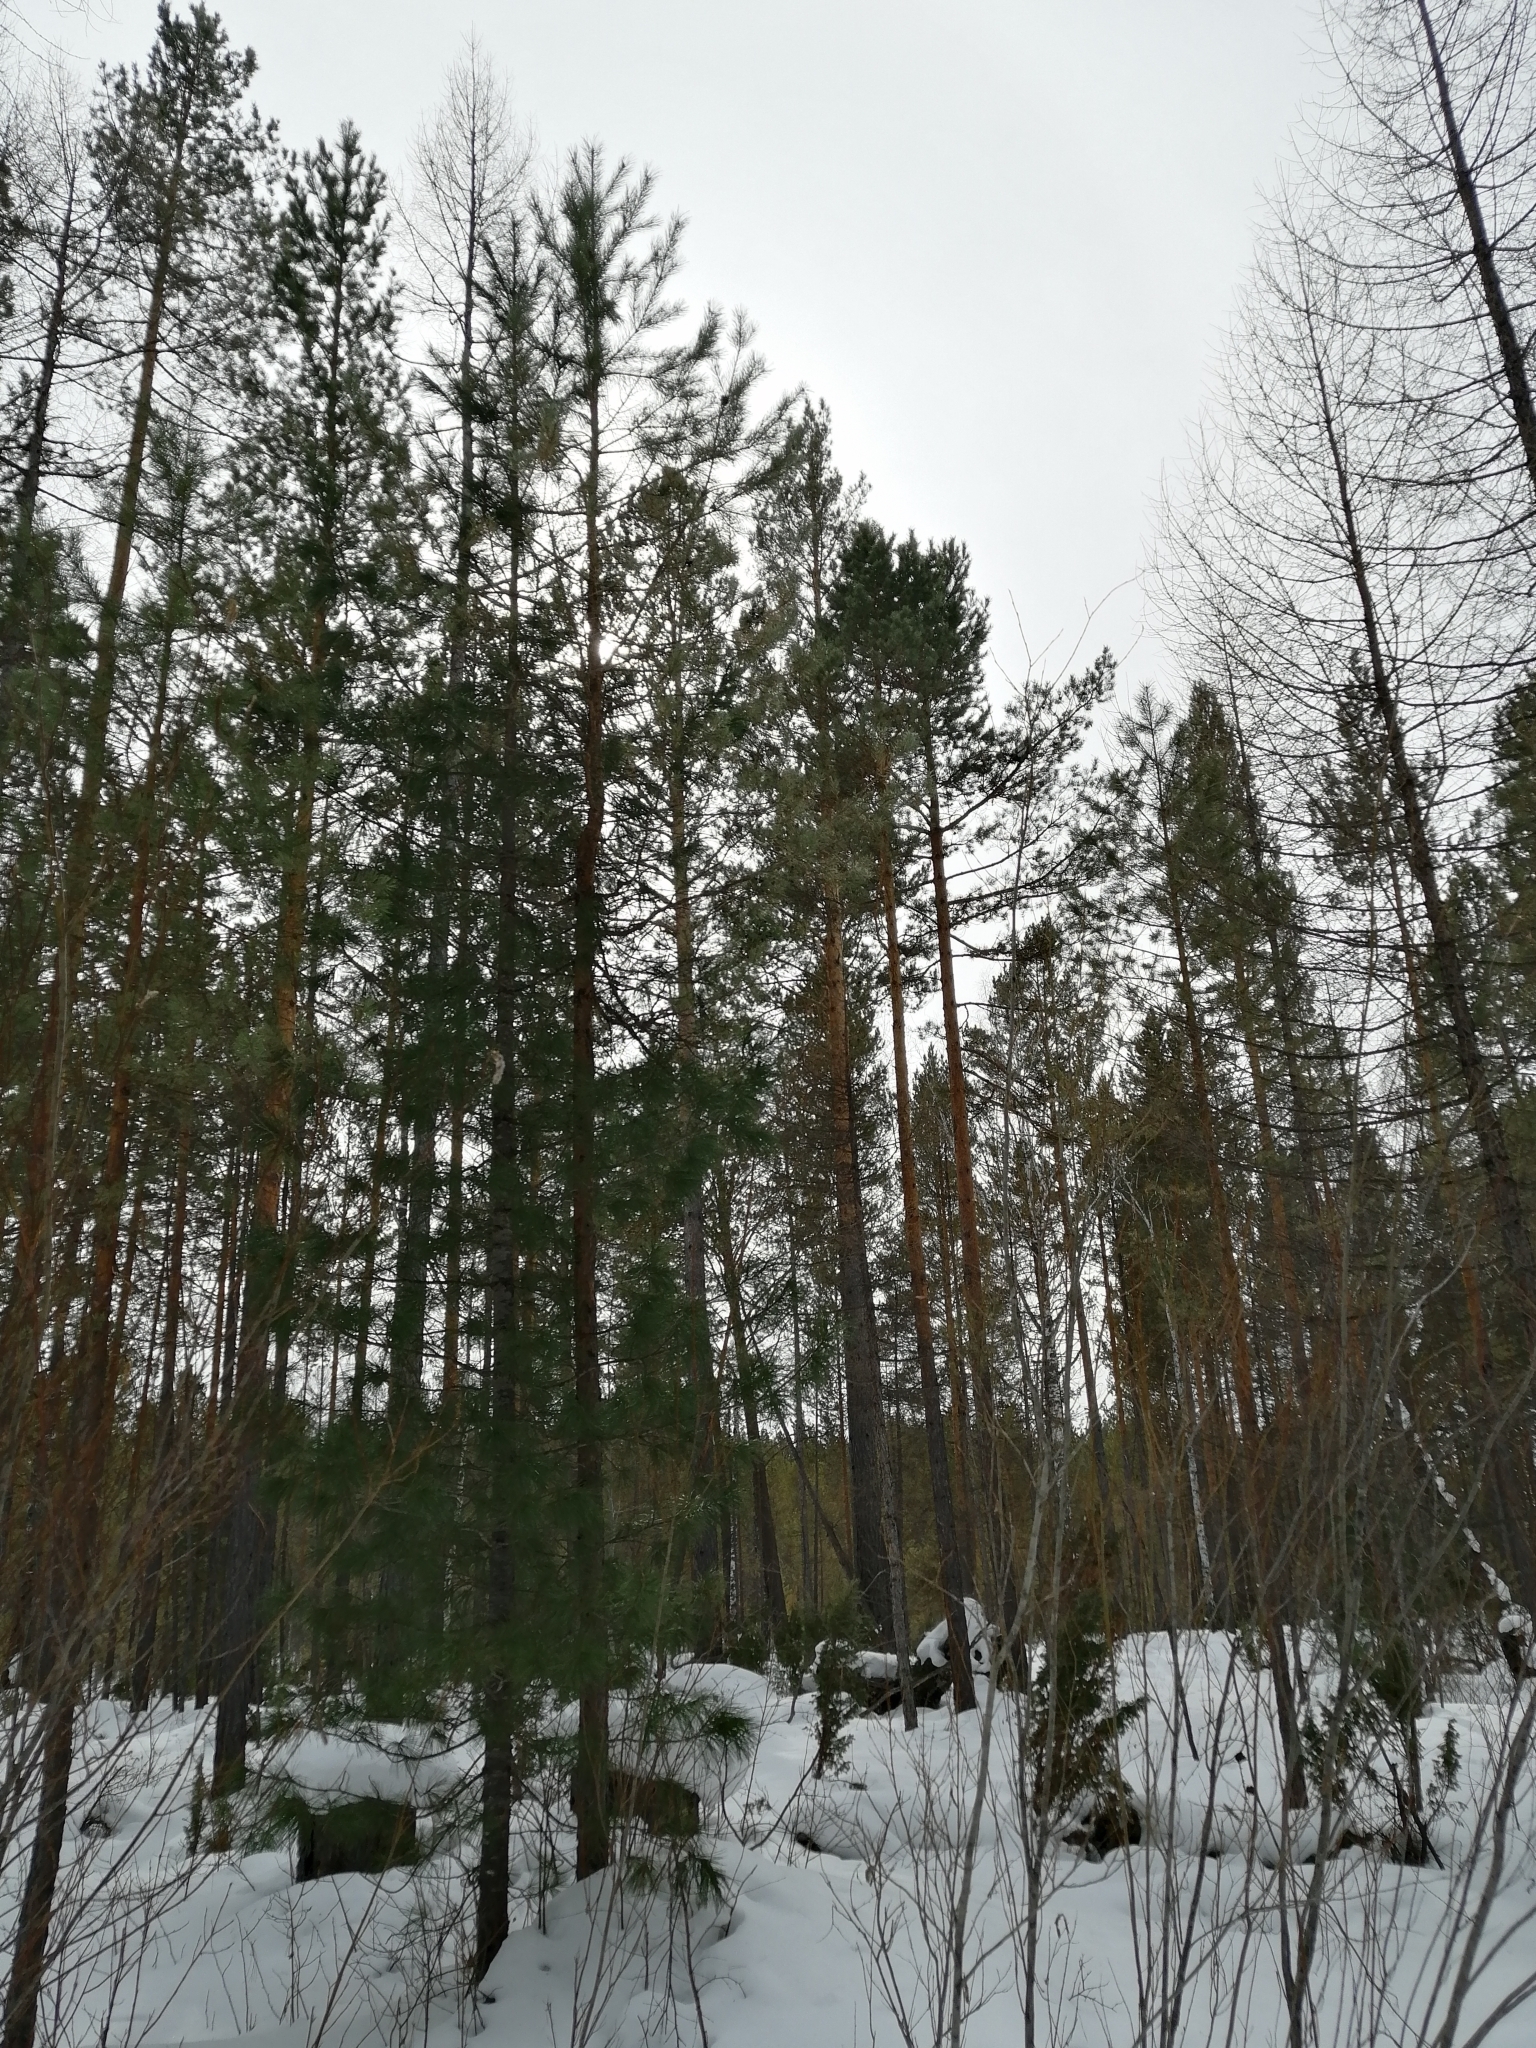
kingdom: Plantae
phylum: Tracheophyta
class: Pinopsida
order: Pinales
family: Pinaceae
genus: Pinus
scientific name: Pinus sibirica
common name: Siberian pine
